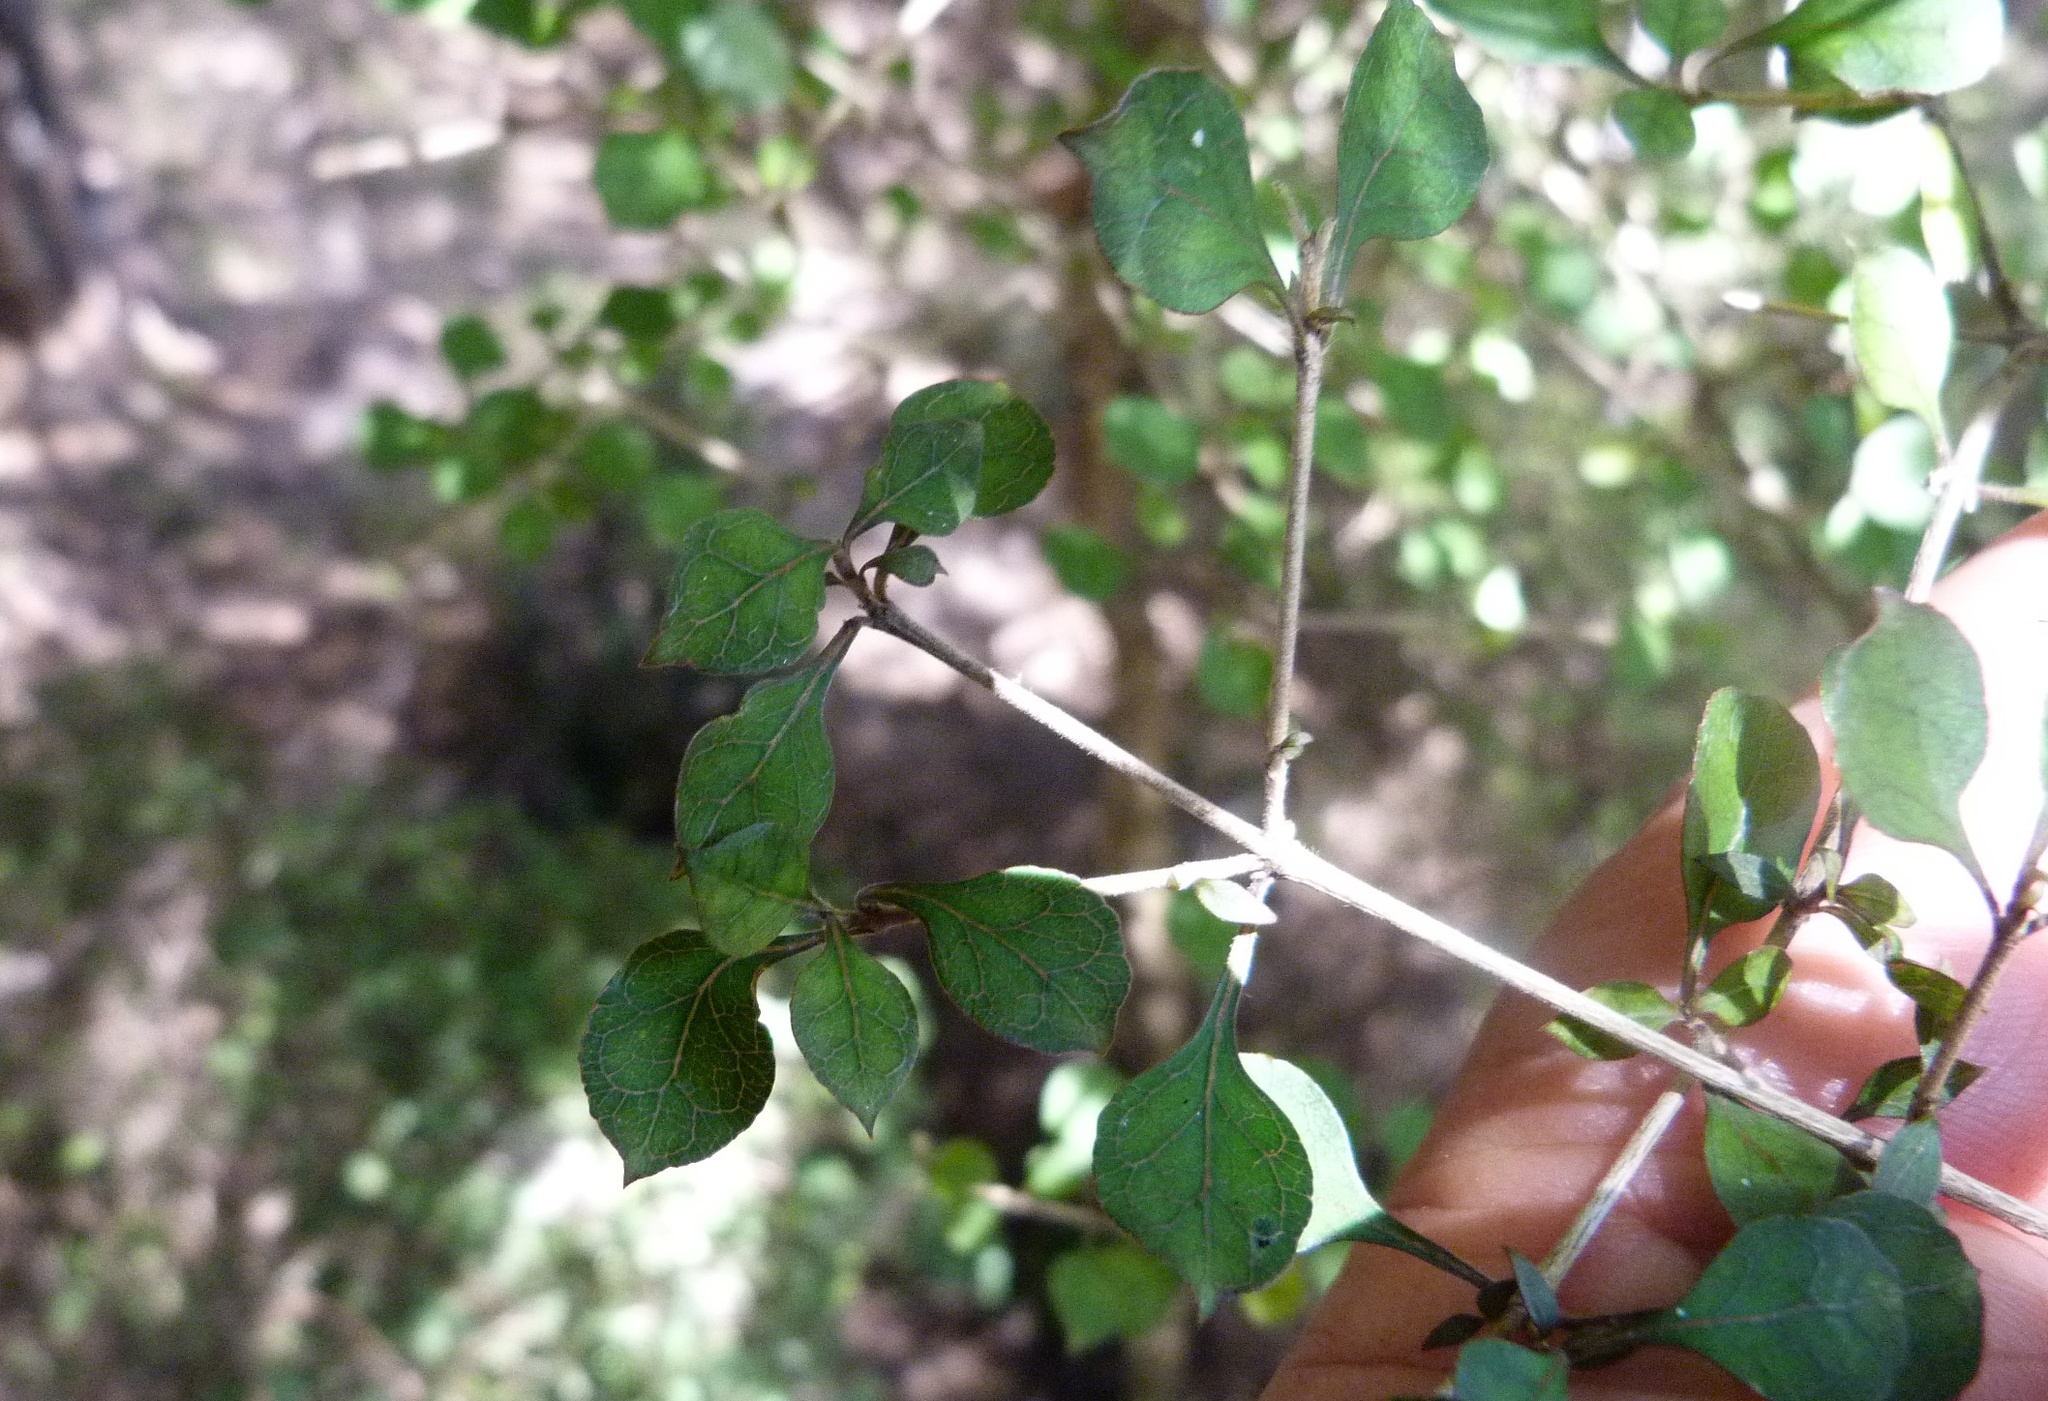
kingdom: Plantae
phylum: Tracheophyta
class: Magnoliopsida
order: Gentianales
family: Rubiaceae
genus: Coprosma
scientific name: Coprosma areolata
